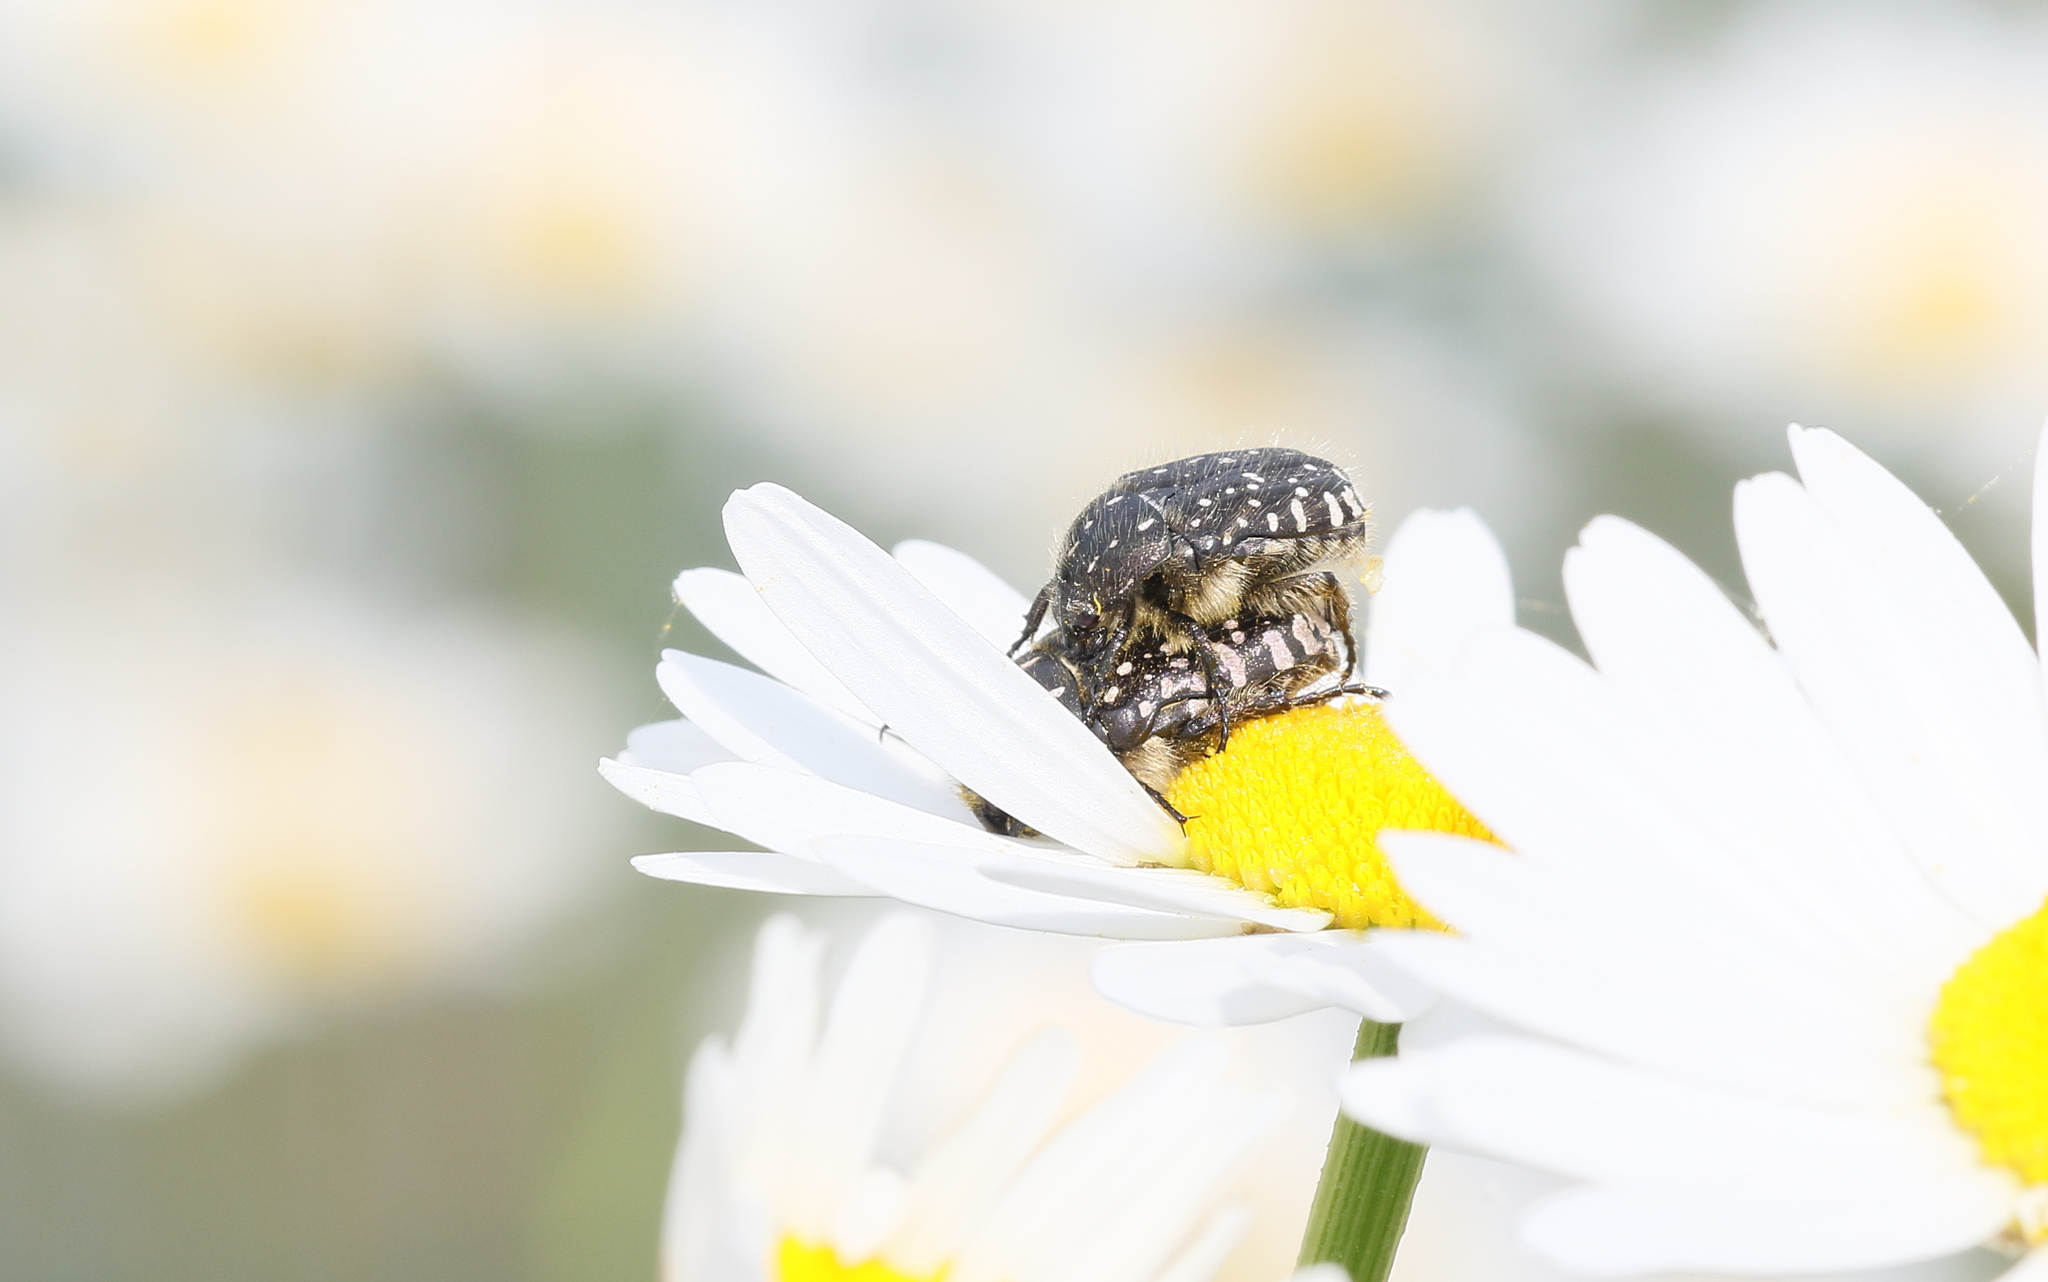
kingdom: Animalia
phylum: Arthropoda
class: Insecta
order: Coleoptera
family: Scarabaeidae
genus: Oxythyrea
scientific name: Oxythyrea funesta
